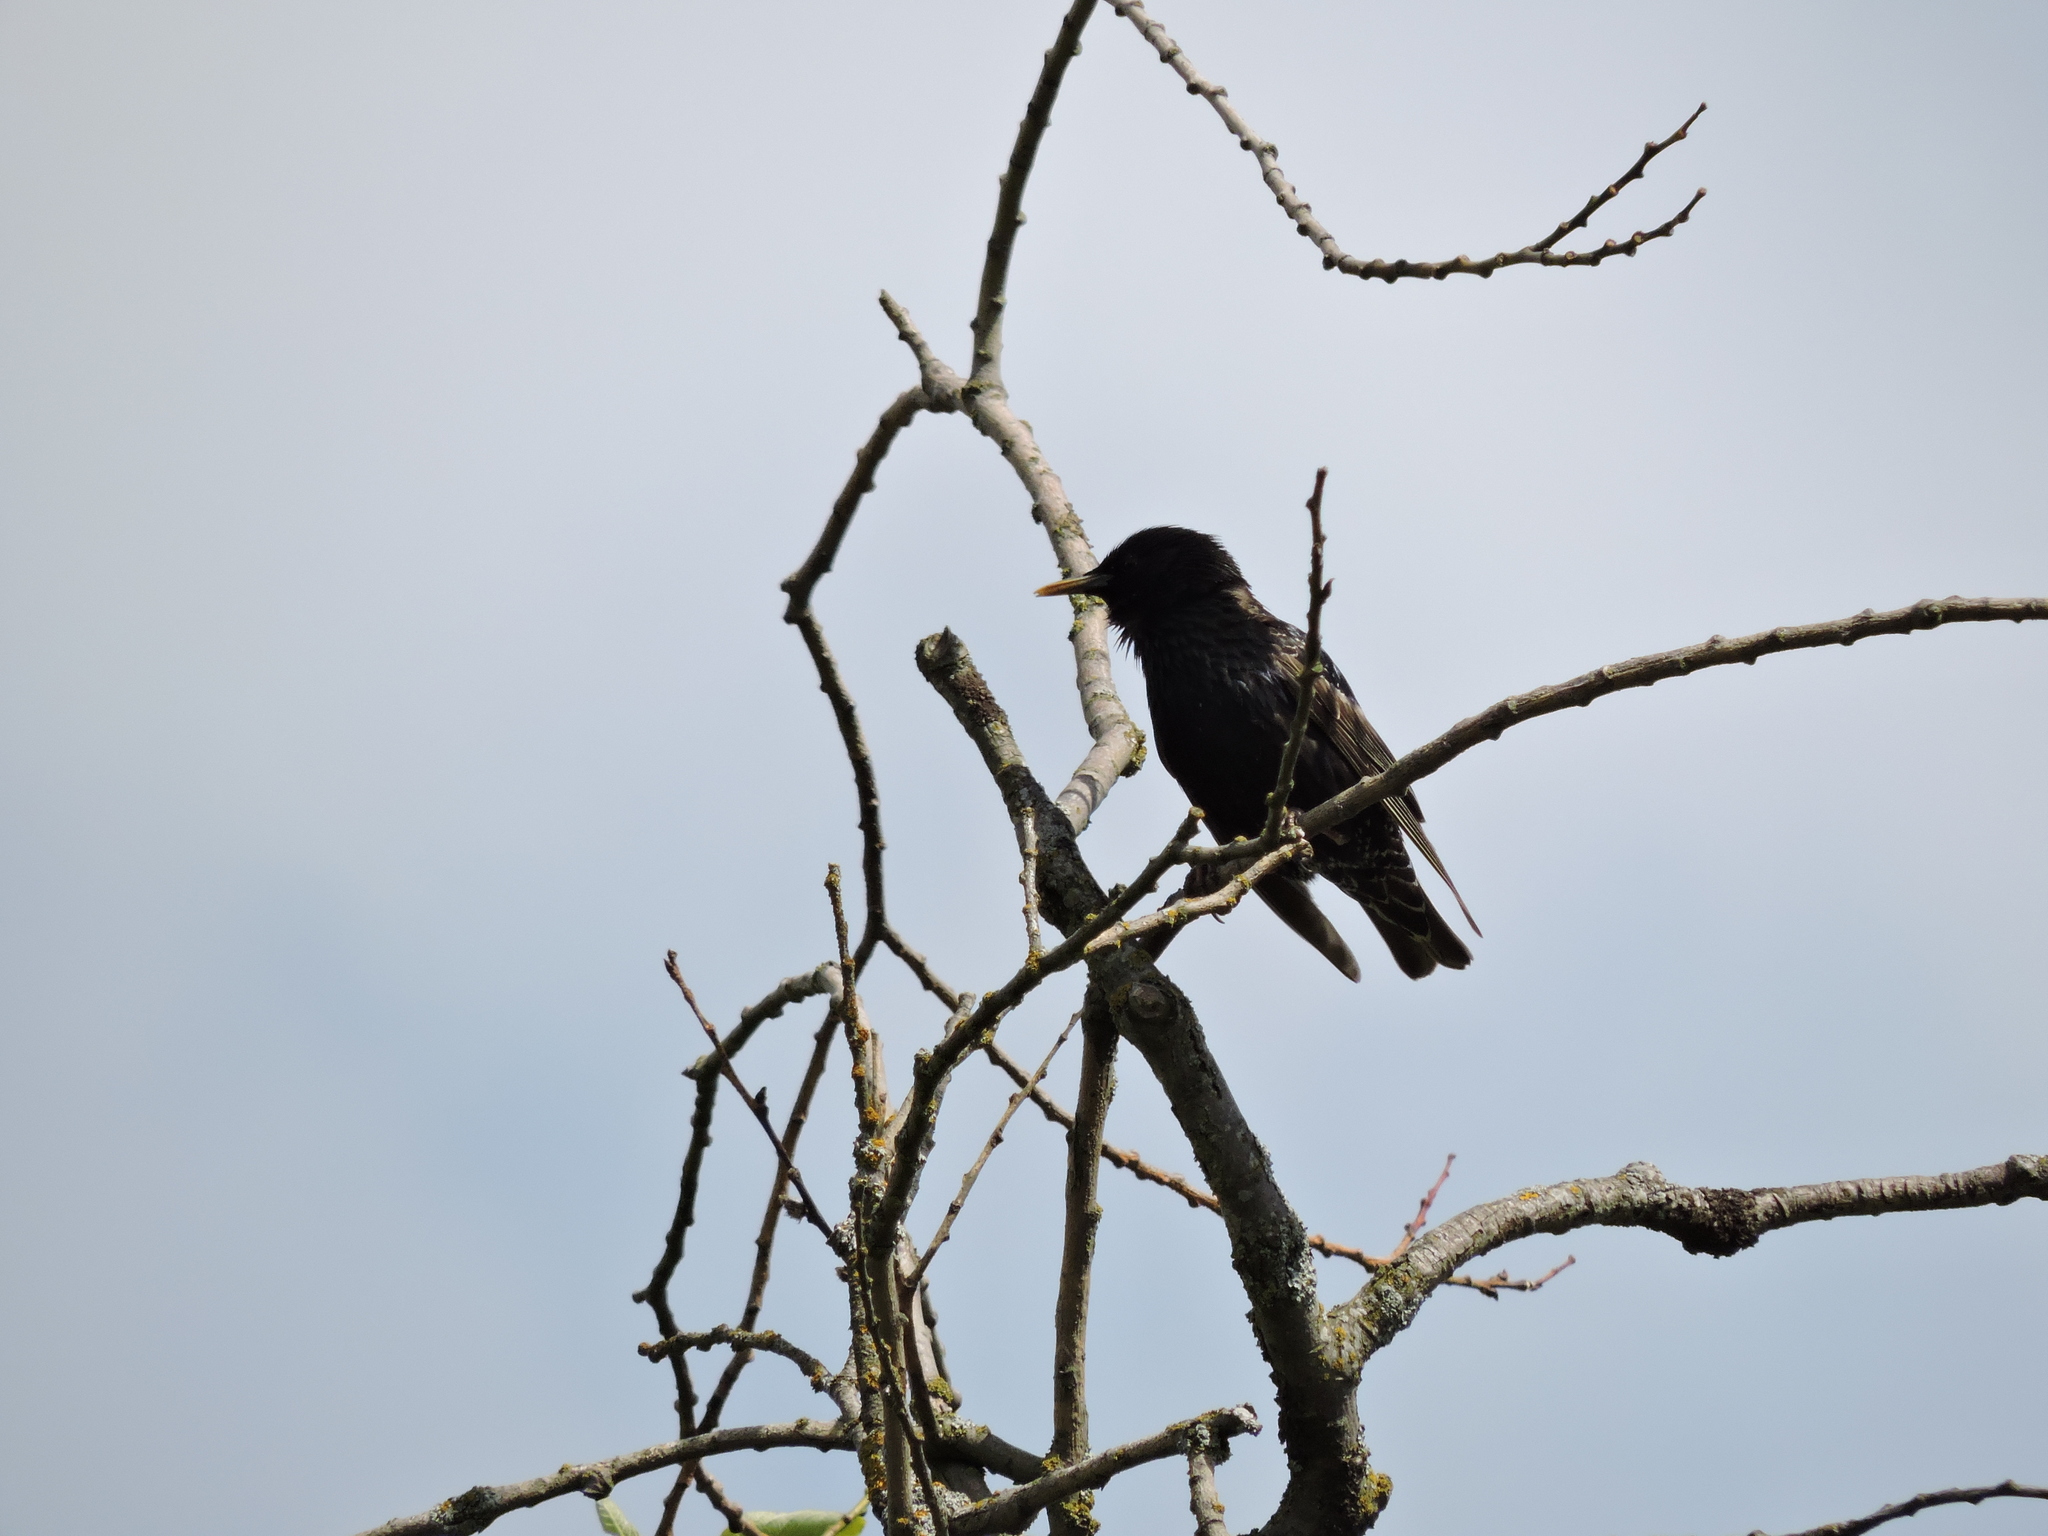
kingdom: Animalia
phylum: Chordata
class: Aves
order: Passeriformes
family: Sturnidae
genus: Sturnus
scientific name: Sturnus vulgaris
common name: Common starling
